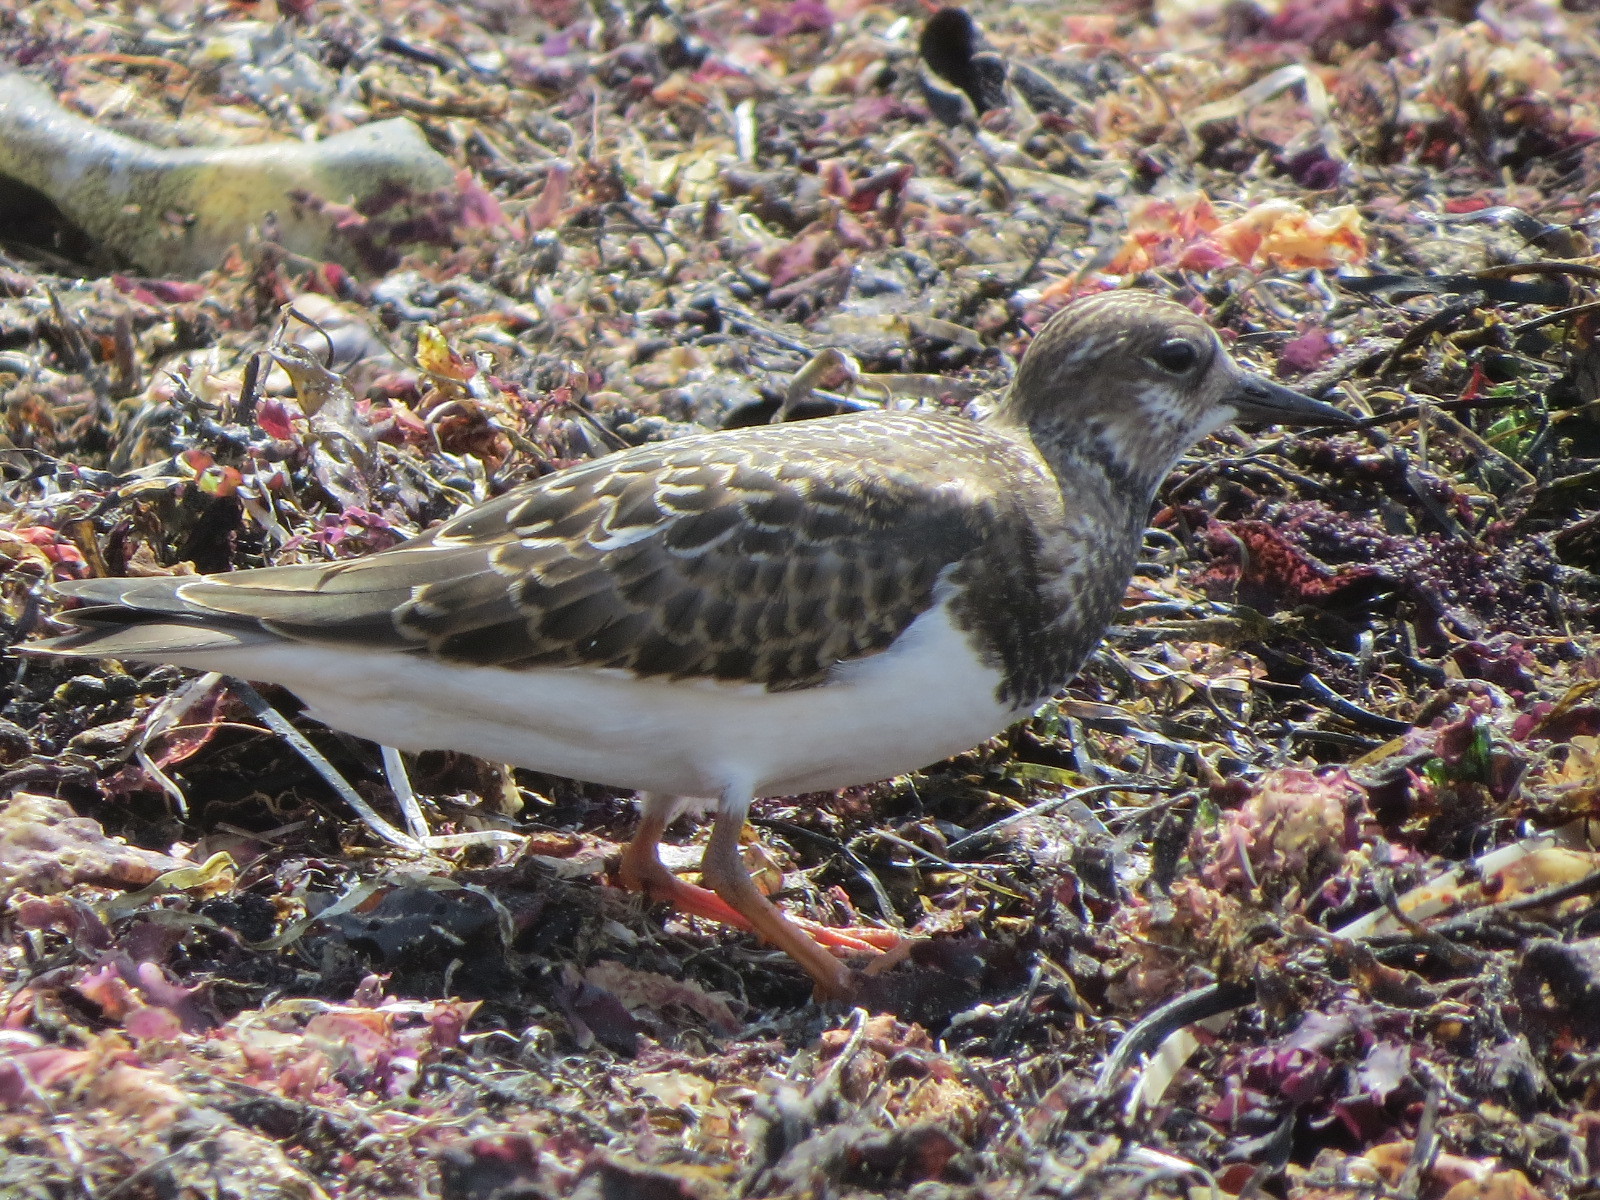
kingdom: Animalia
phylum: Chordata
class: Aves
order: Charadriiformes
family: Scolopacidae
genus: Arenaria
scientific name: Arenaria interpres
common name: Ruddy turnstone
